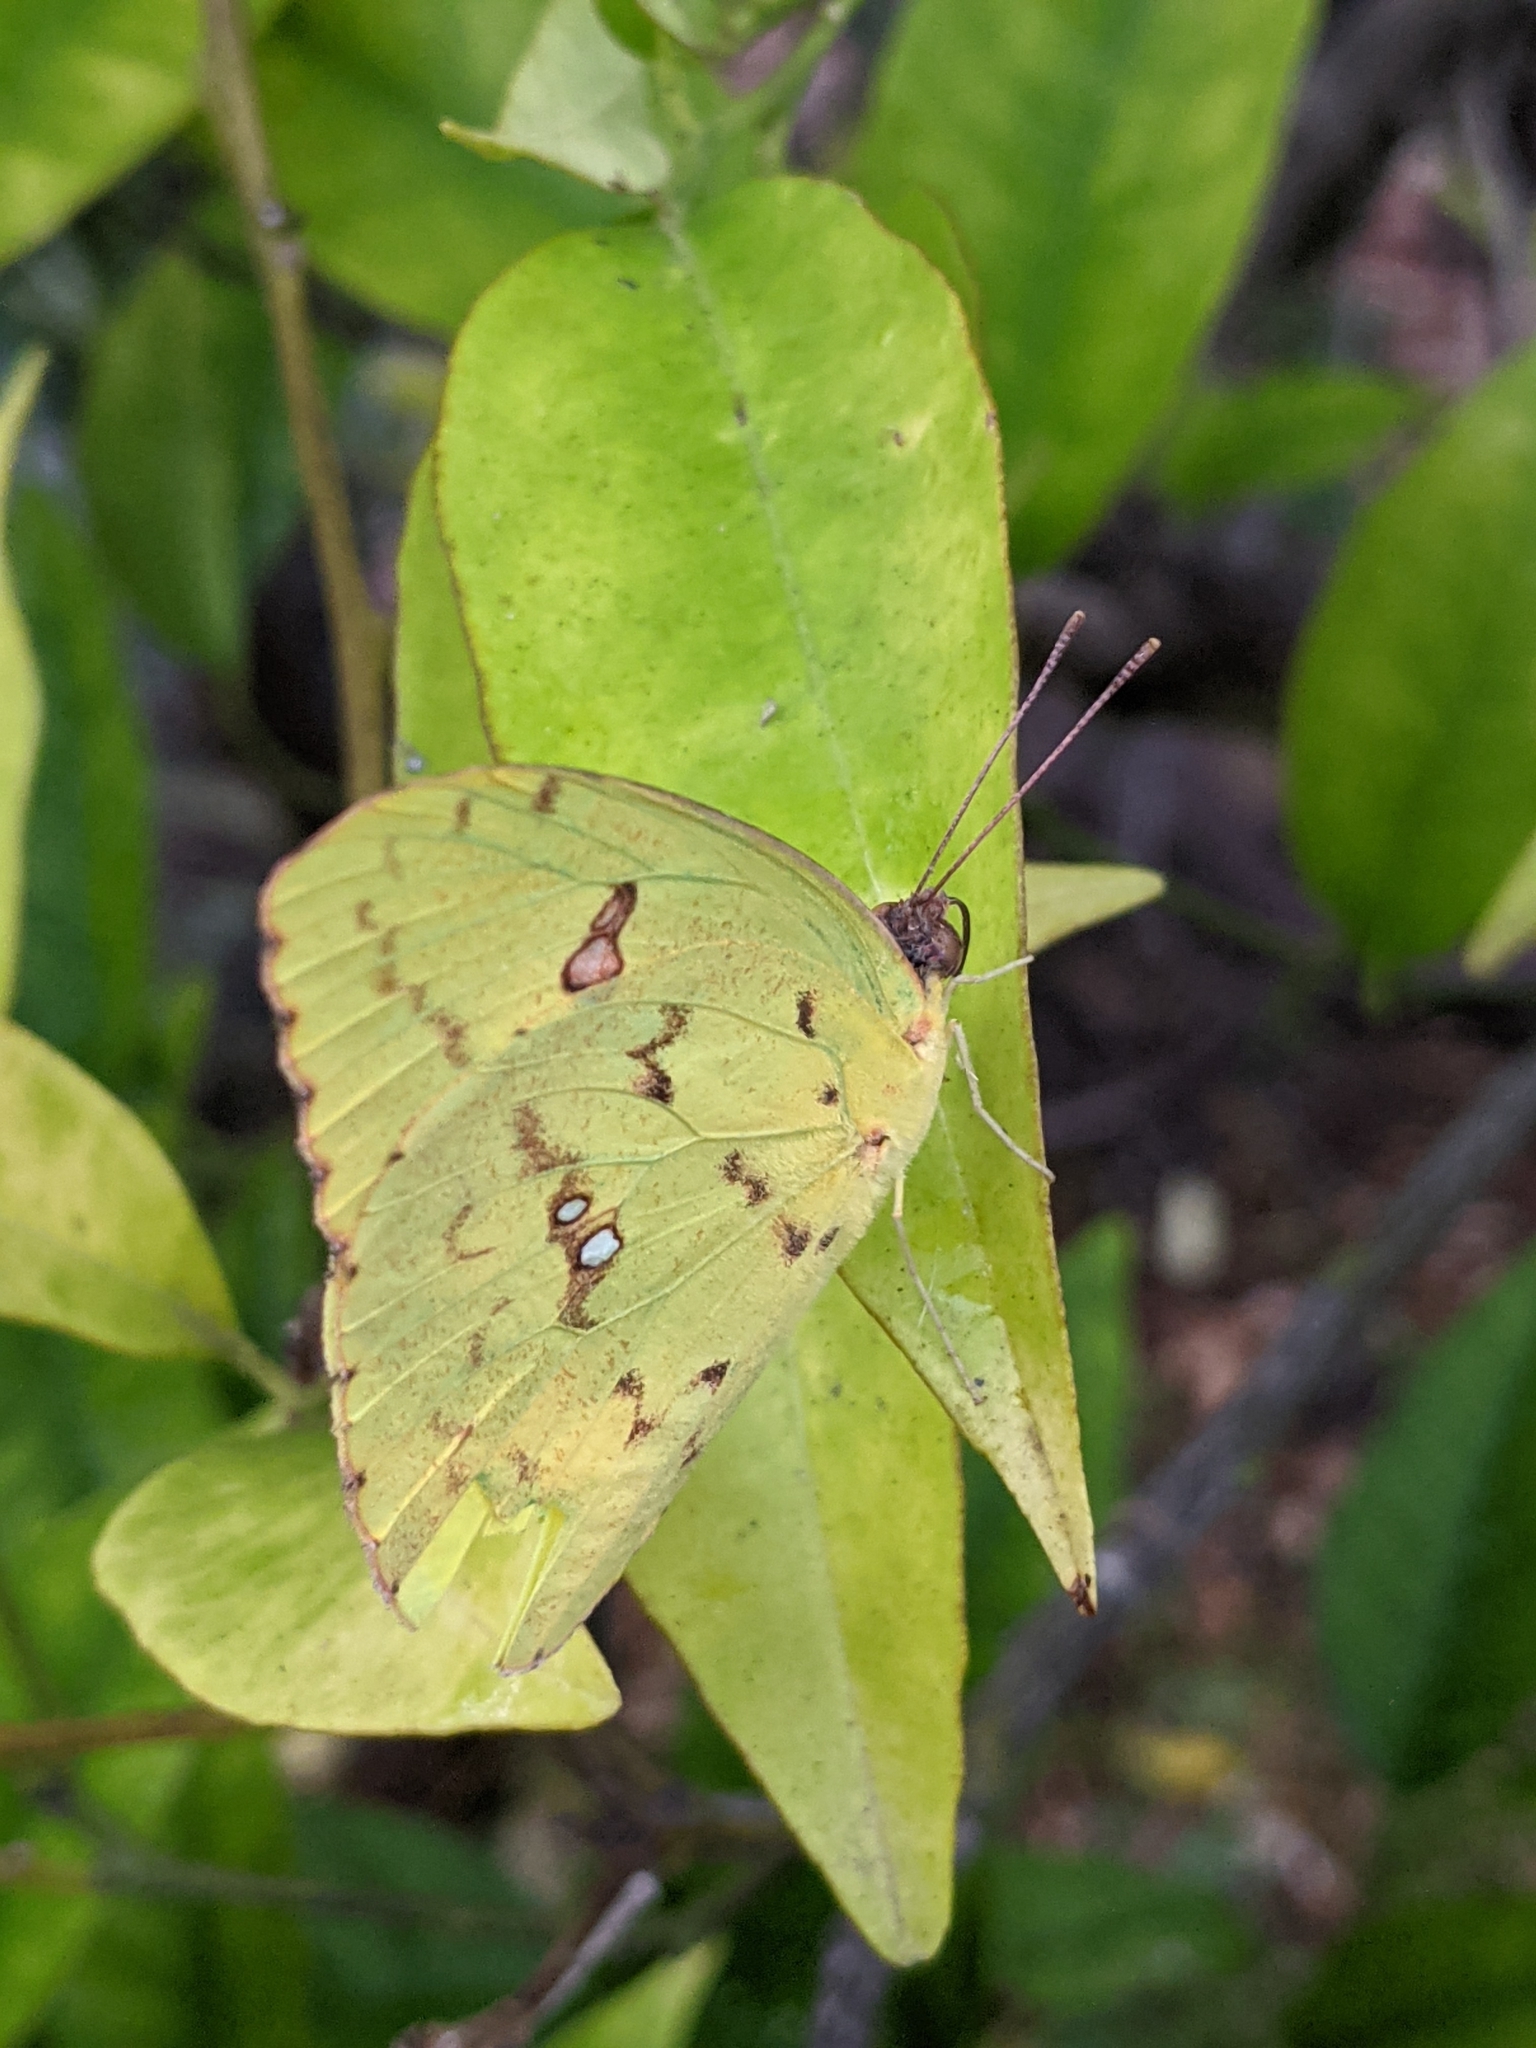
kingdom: Animalia
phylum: Arthropoda
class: Insecta
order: Lepidoptera
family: Pieridae
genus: Phoebis
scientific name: Phoebis sennae
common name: Cloudless sulphur
